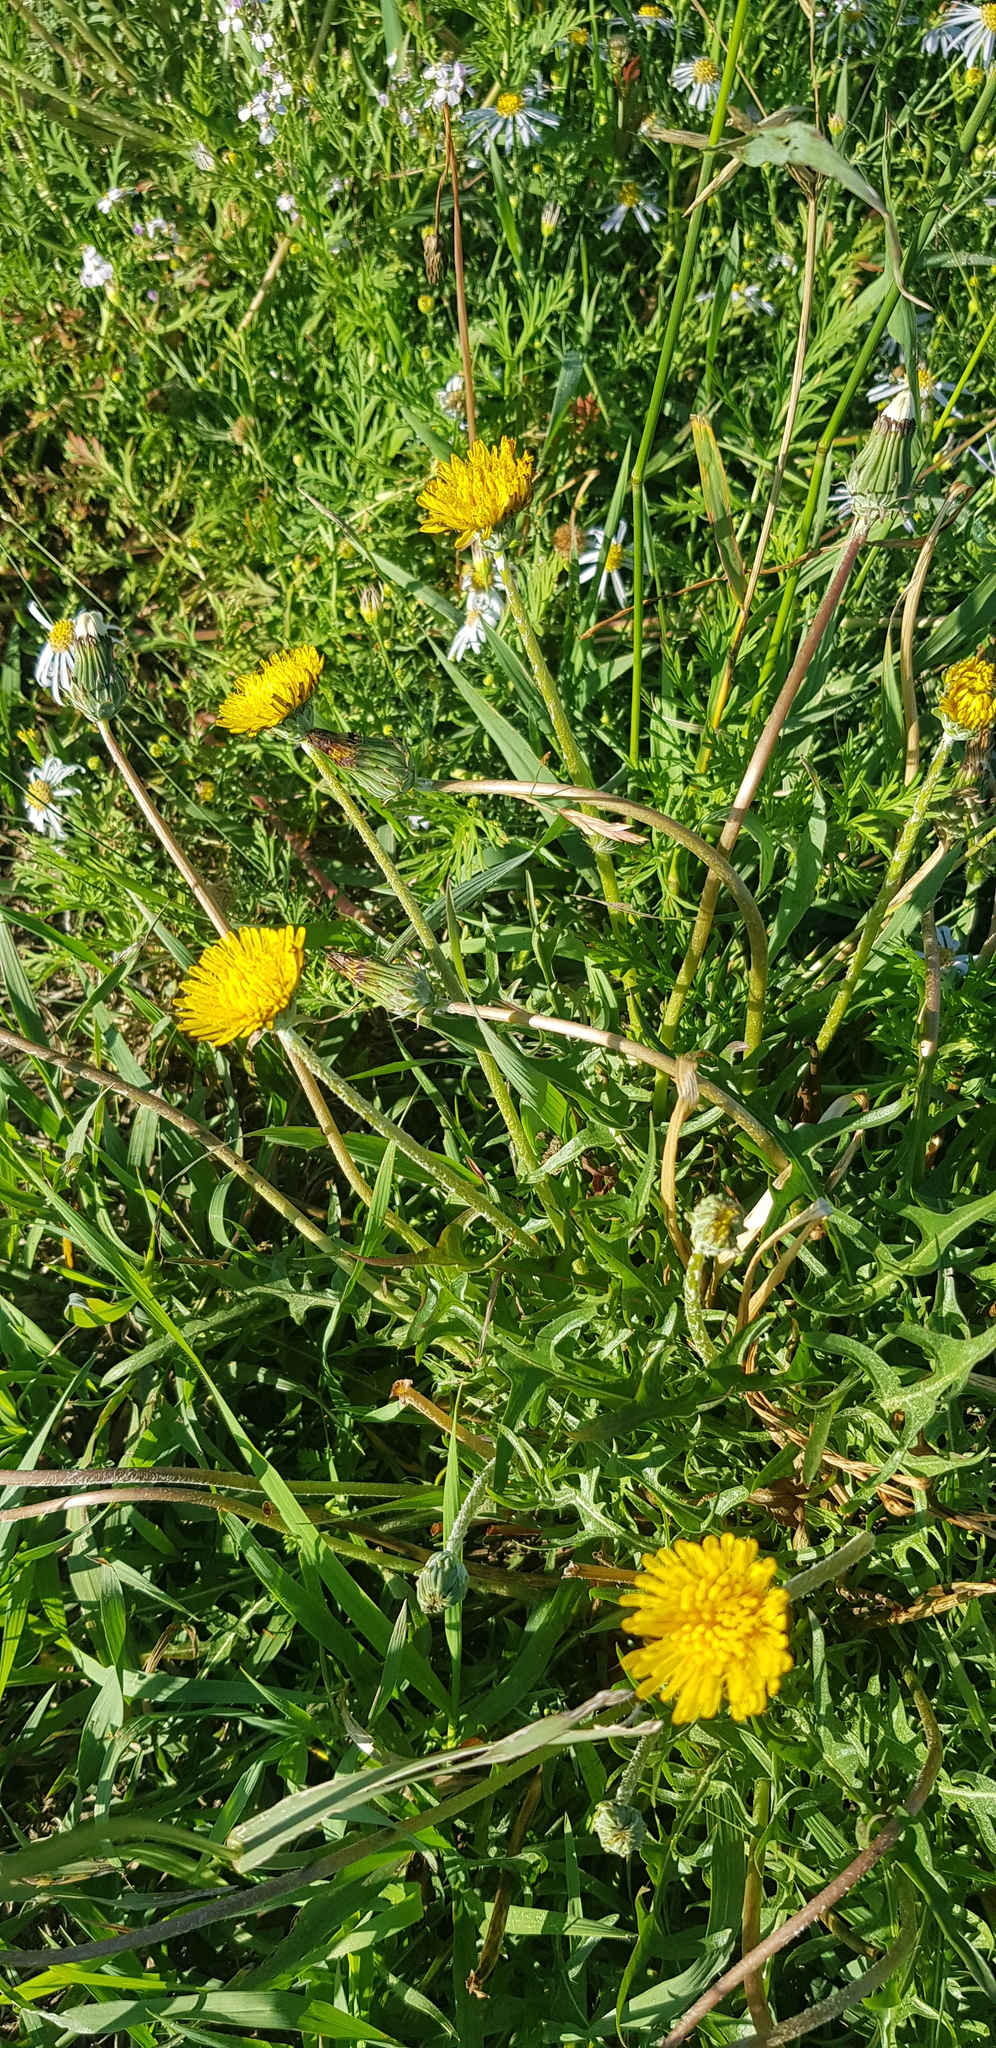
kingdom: Plantae
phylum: Tracheophyta
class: Magnoliopsida
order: Asterales
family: Asteraceae
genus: Taraxacum
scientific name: Taraxacum officinale
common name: Common dandelion
